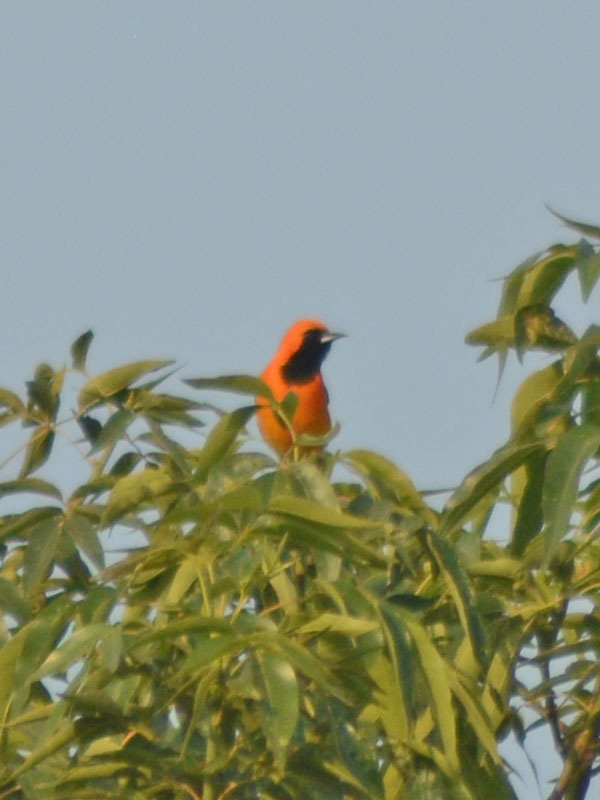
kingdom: Animalia
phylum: Chordata
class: Aves
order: Passeriformes
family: Icteridae
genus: Icterus
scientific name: Icterus cucullatus
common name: Hooded oriole
